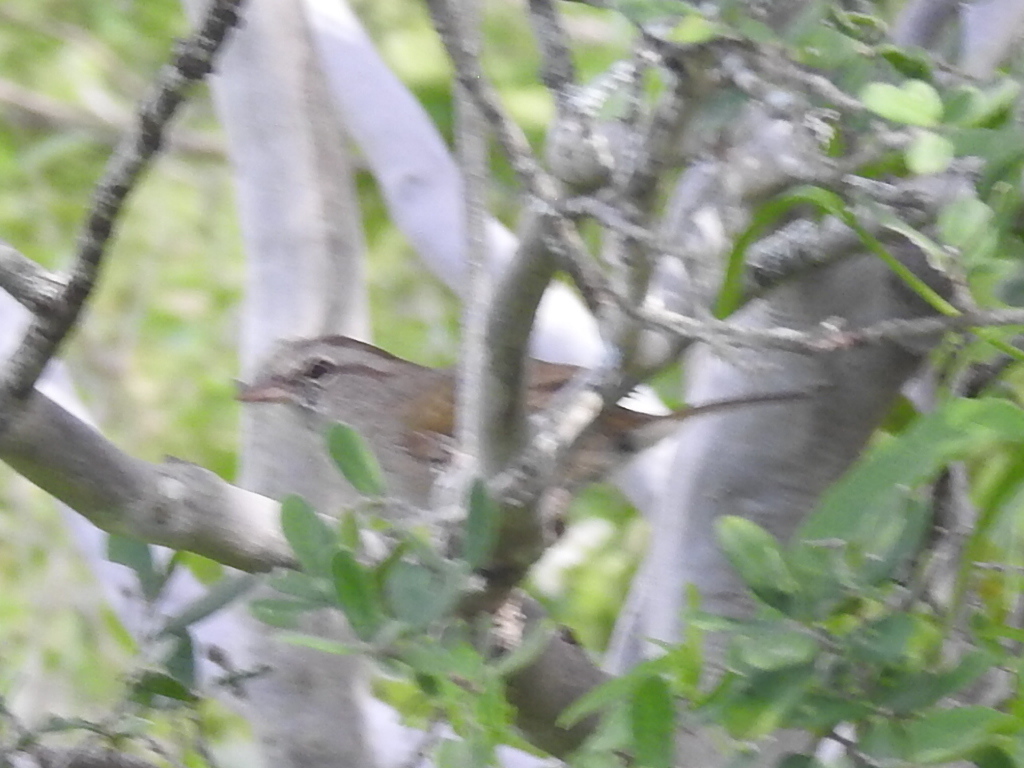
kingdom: Animalia
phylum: Chordata
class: Aves
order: Passeriformes
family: Passerellidae
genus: Arremonops
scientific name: Arremonops rufivirgatus
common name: Olive sparrow
